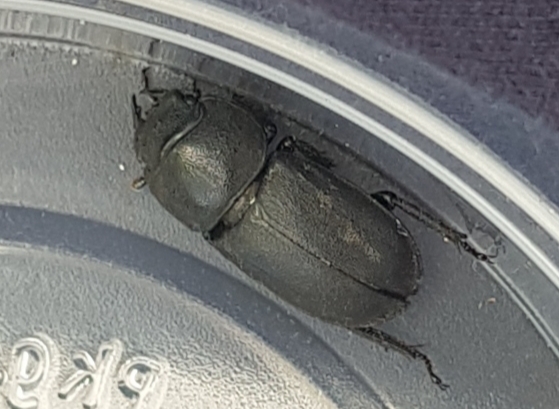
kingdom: Animalia
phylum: Arthropoda
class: Insecta
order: Coleoptera
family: Lucanidae
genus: Dorcus
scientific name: Dorcus parallelipipedus
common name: Lesser stag beetle
